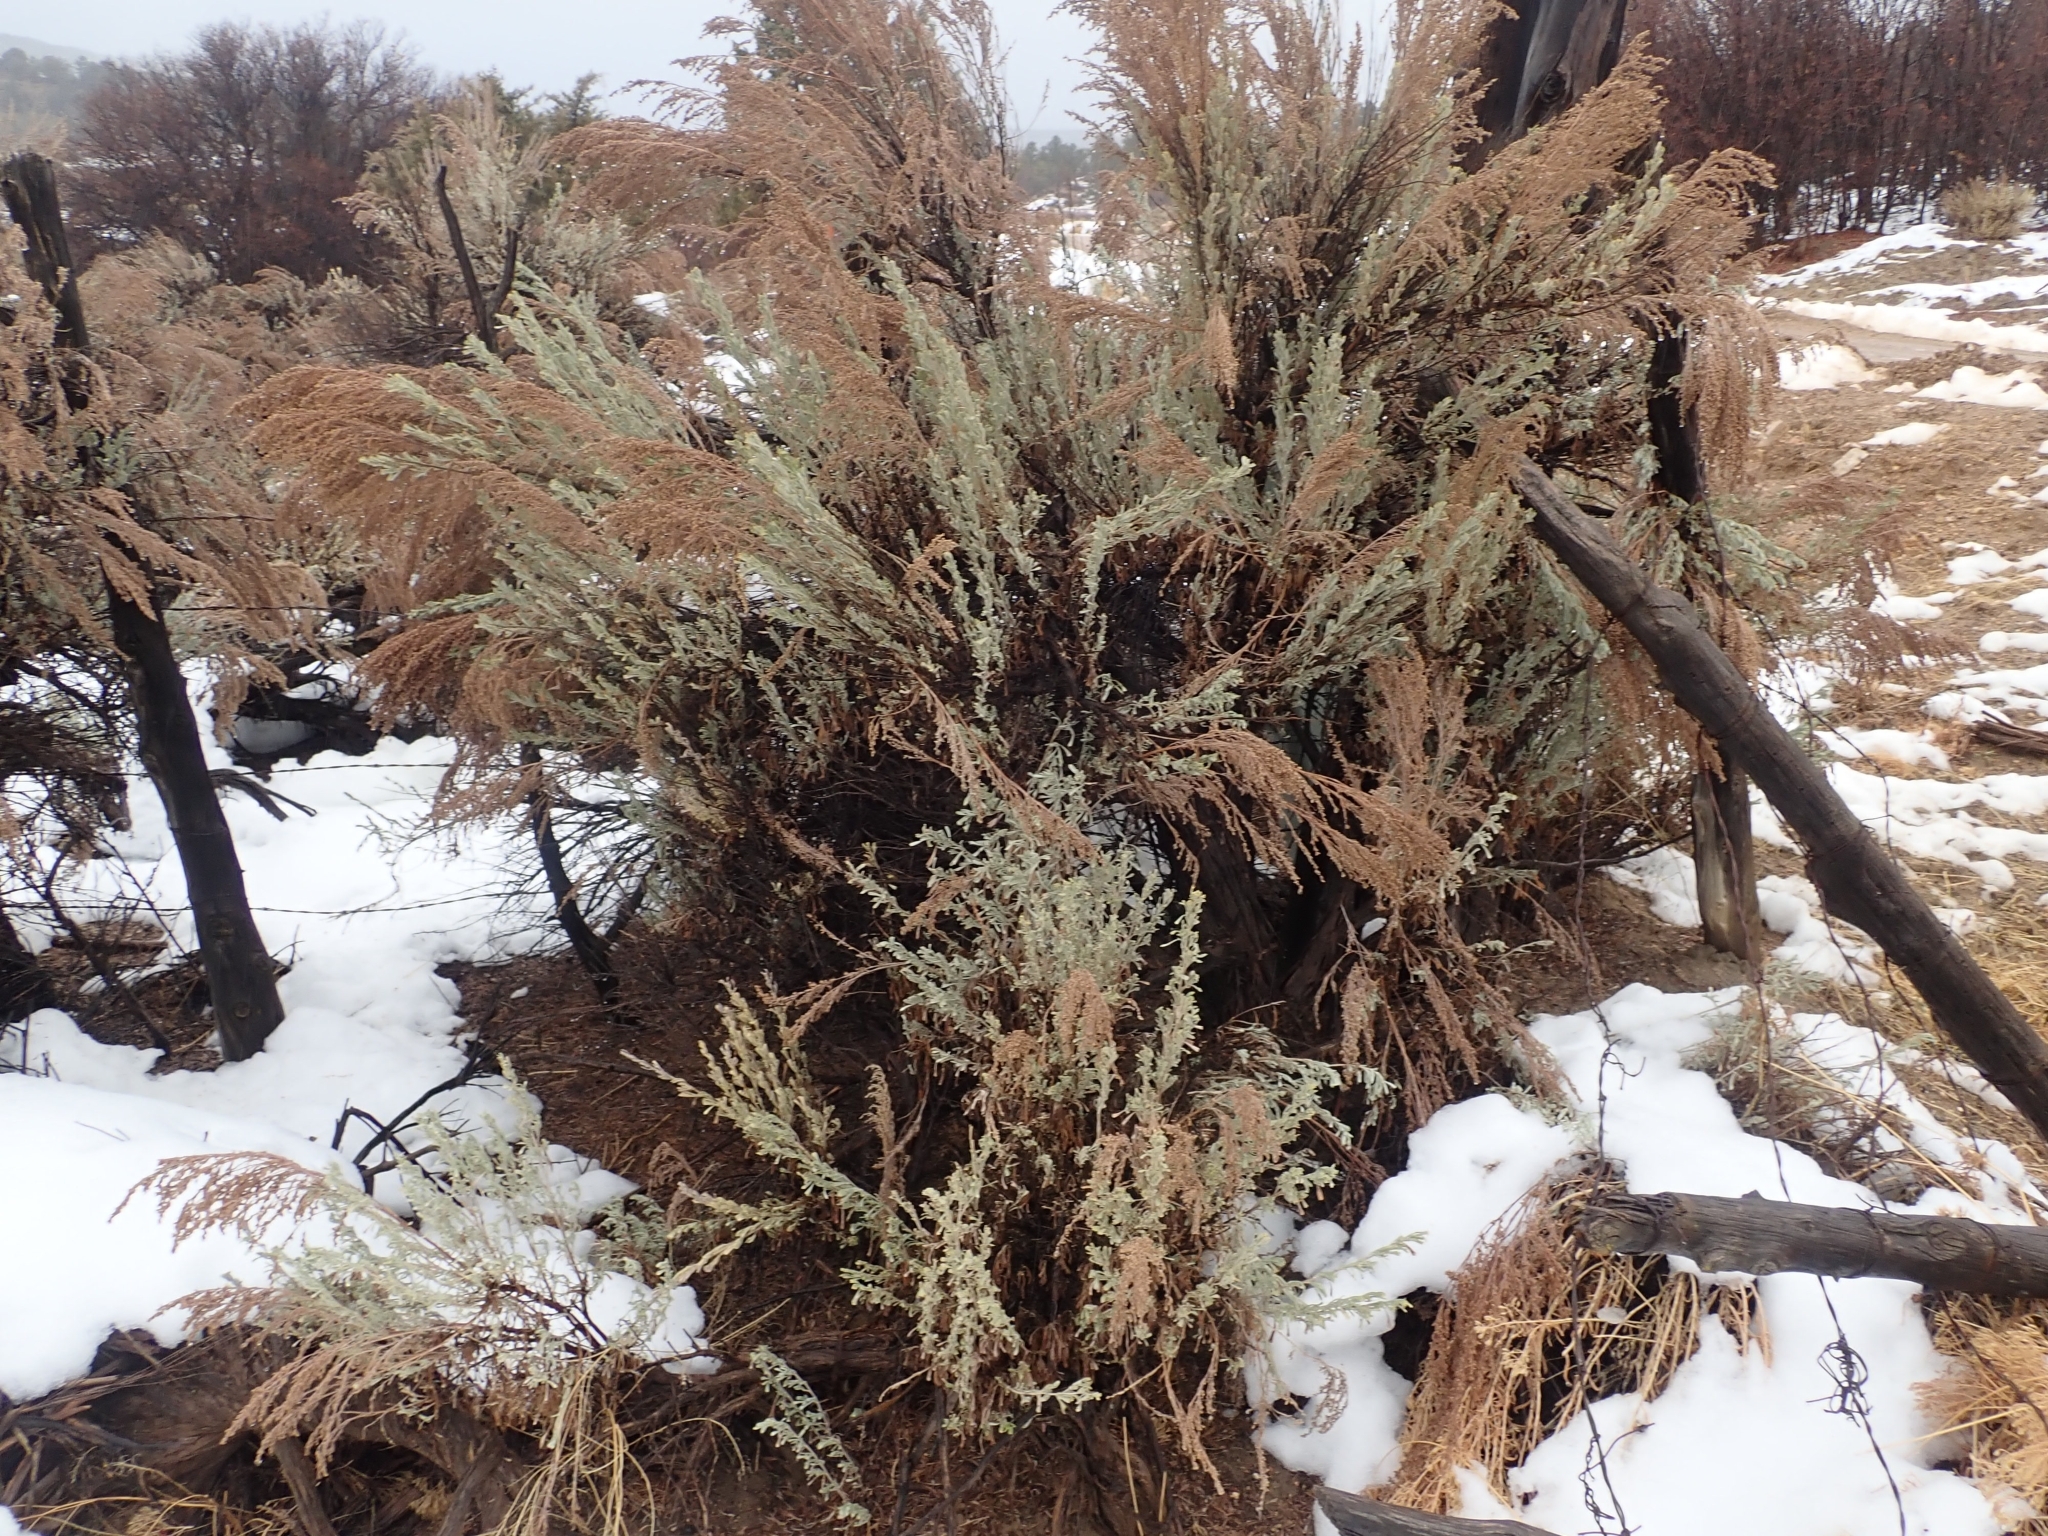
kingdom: Plantae
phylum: Tracheophyta
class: Magnoliopsida
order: Asterales
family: Asteraceae
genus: Artemisia
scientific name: Artemisia tridentata
